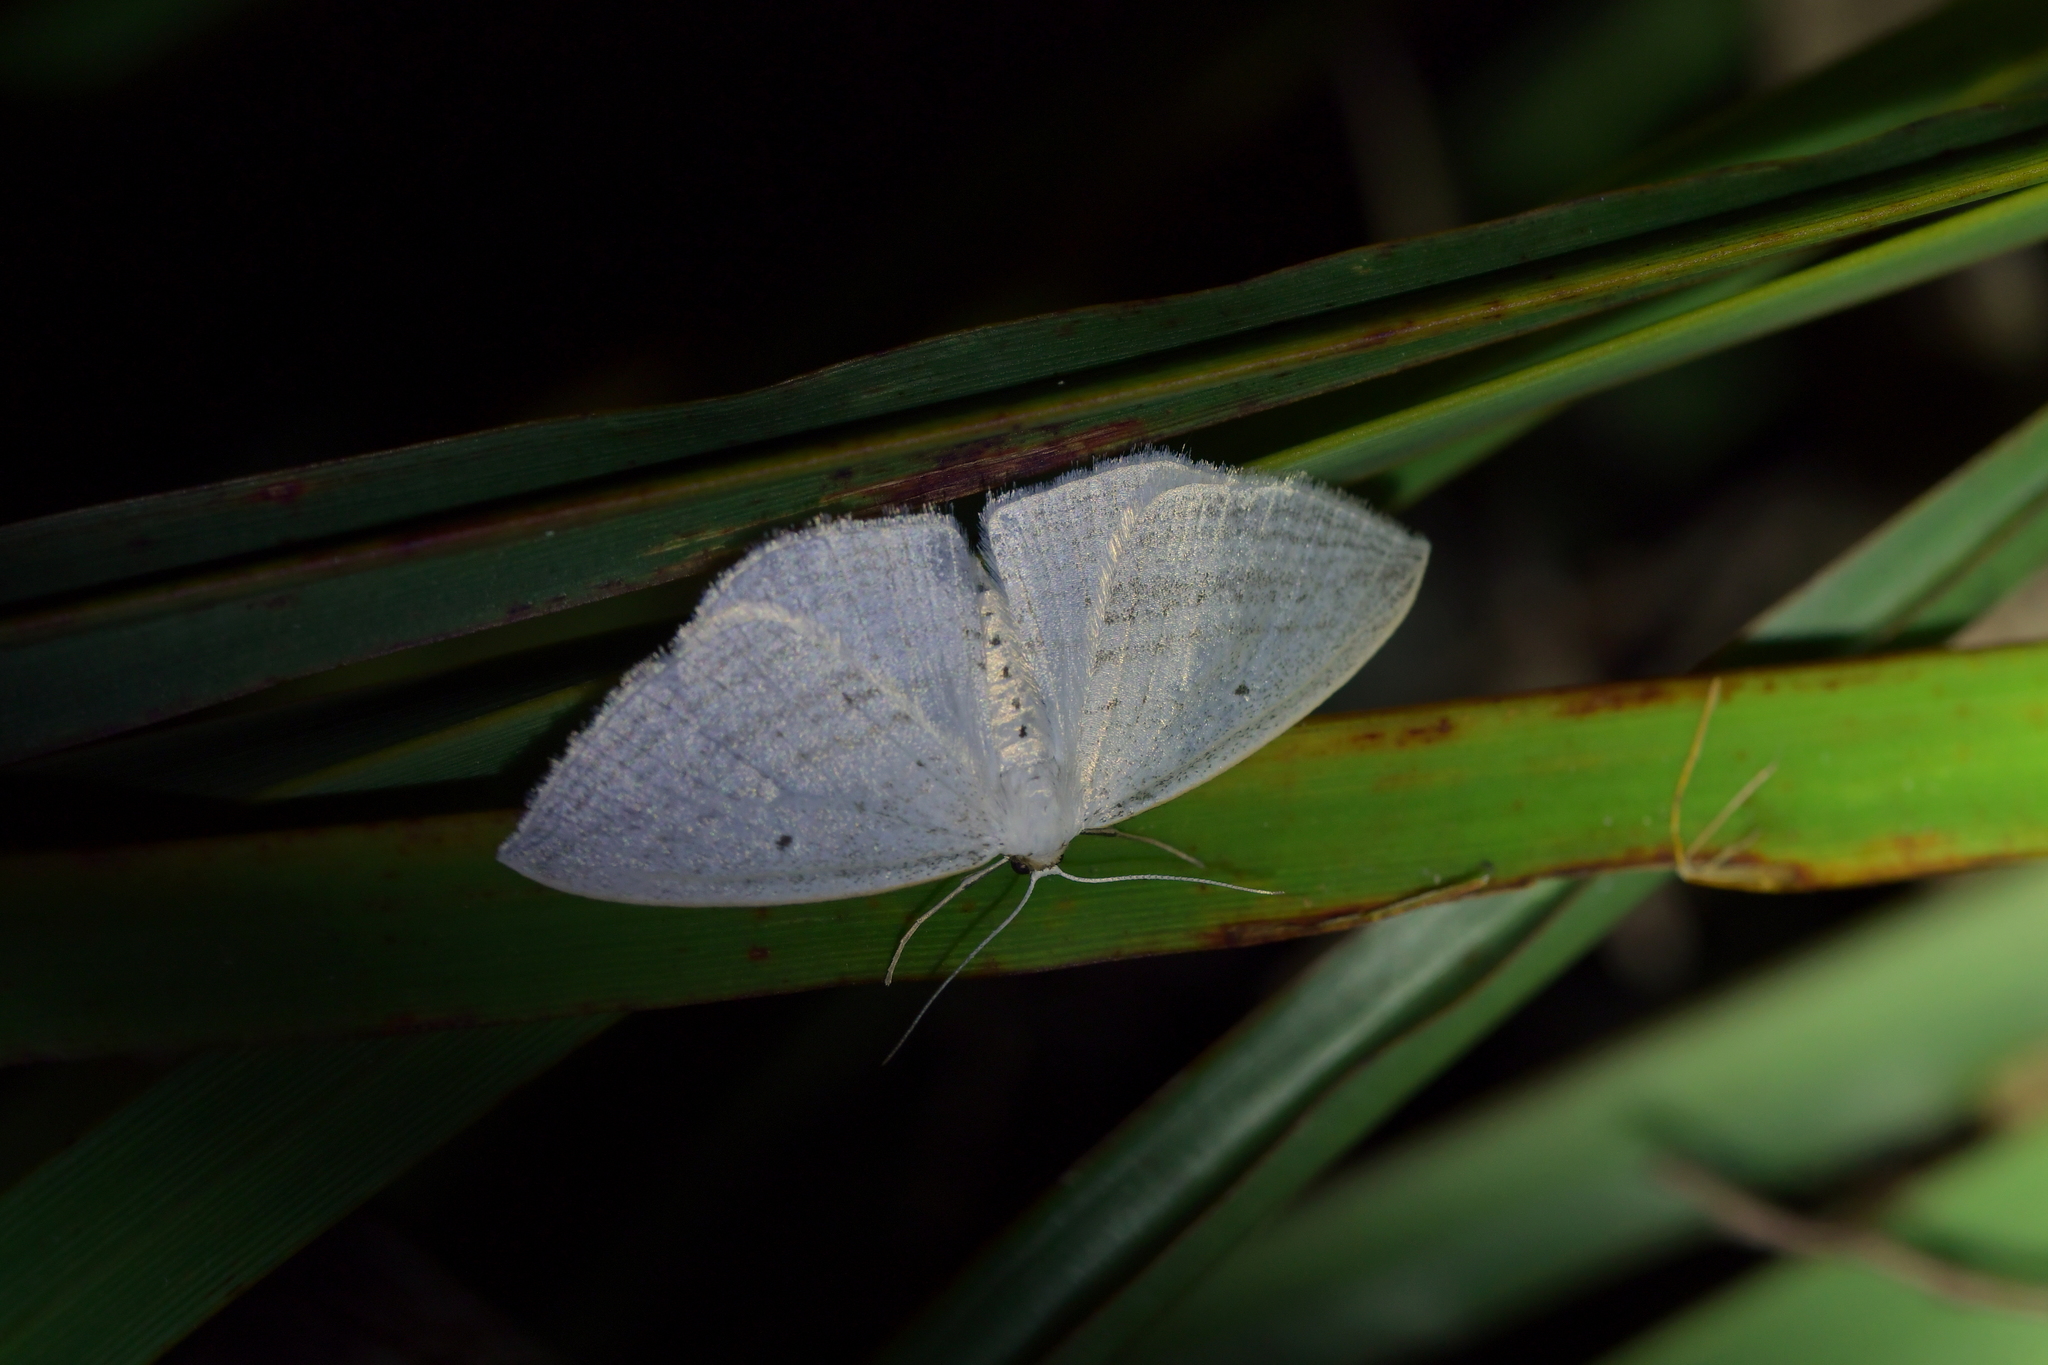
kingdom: Animalia
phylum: Arthropoda
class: Insecta
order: Lepidoptera
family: Geometridae
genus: Orthoclydon
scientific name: Orthoclydon praefectata
